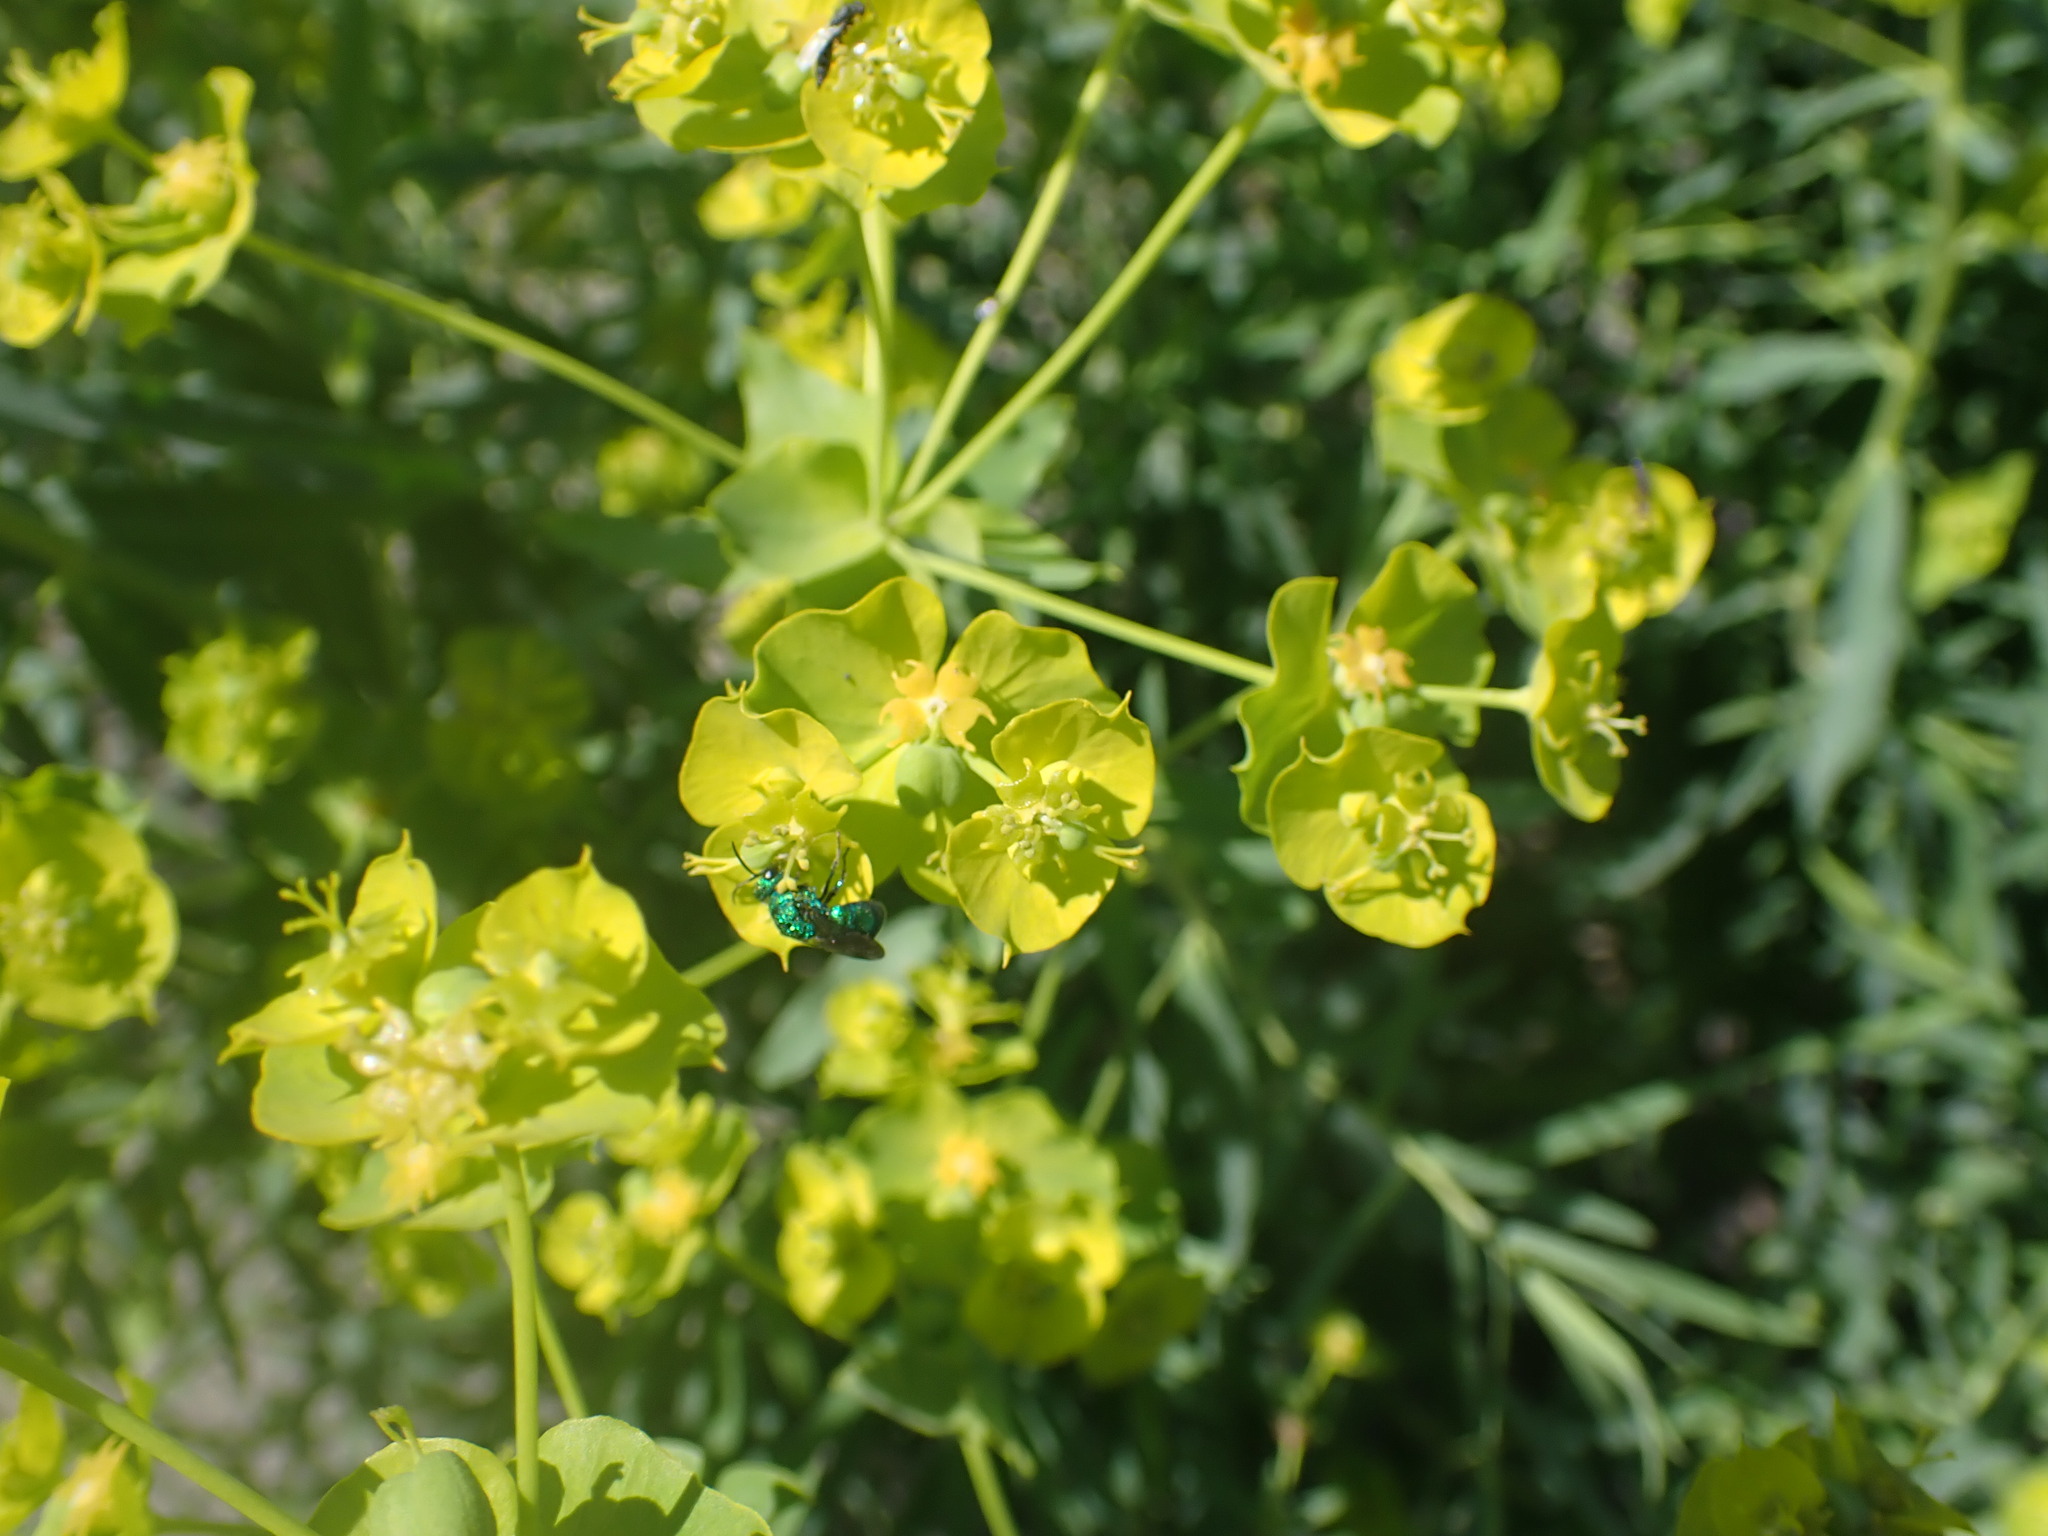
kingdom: Animalia
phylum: Arthropoda
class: Insecta
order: Hymenoptera
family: Chrysididae
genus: Holopyga
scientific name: Holopyga
